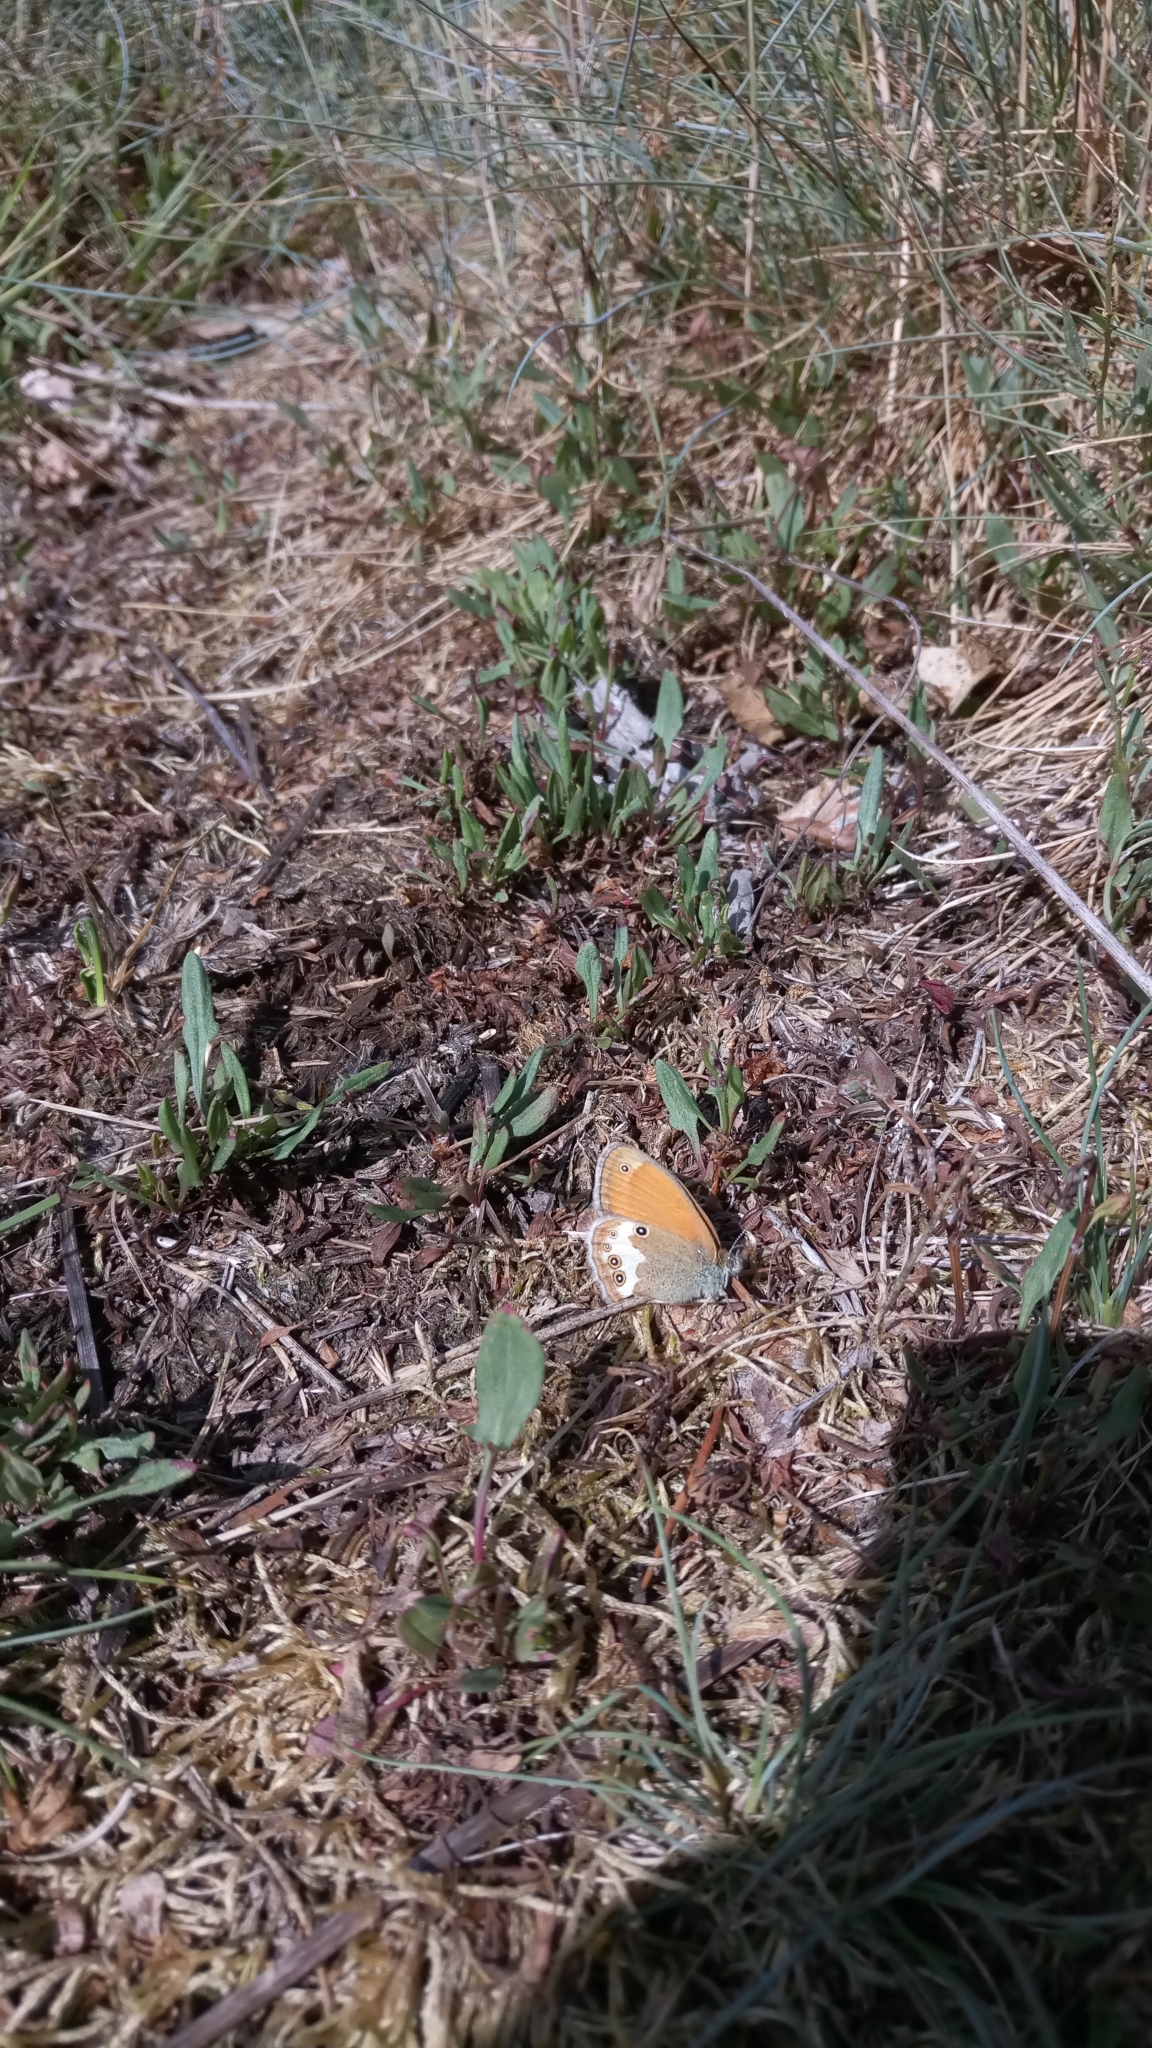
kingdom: Animalia
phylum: Arthropoda
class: Insecta
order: Lepidoptera
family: Nymphalidae
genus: Coenonympha
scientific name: Coenonympha arcania
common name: Pearly heath
